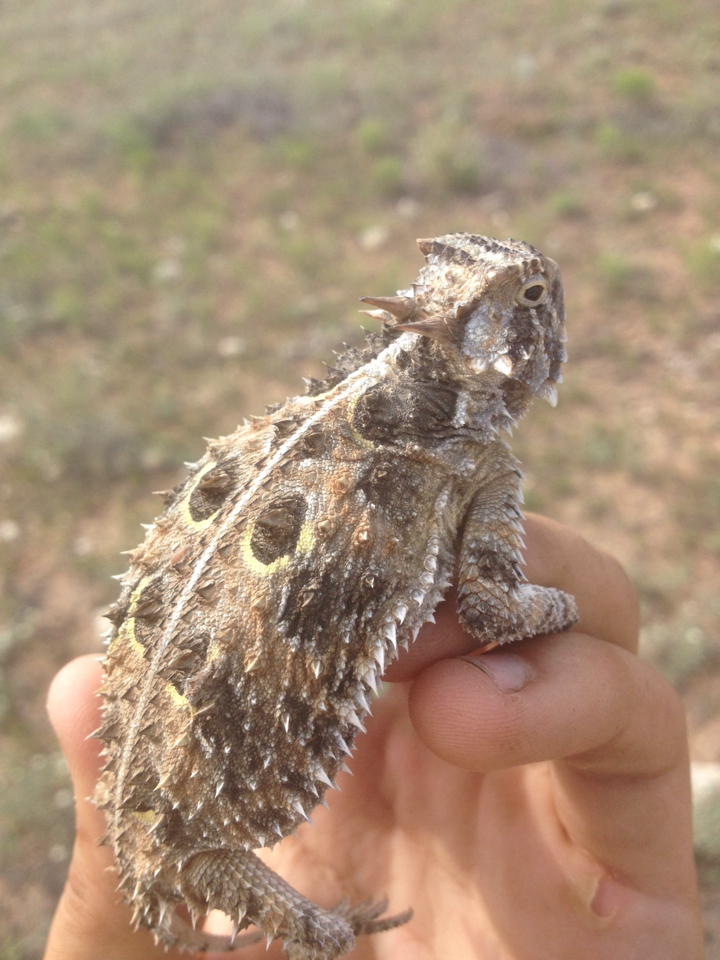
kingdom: Animalia
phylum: Chordata
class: Squamata
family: Phrynosomatidae
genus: Phrynosoma
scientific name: Phrynosoma cornutum
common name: Texas horned lizard
